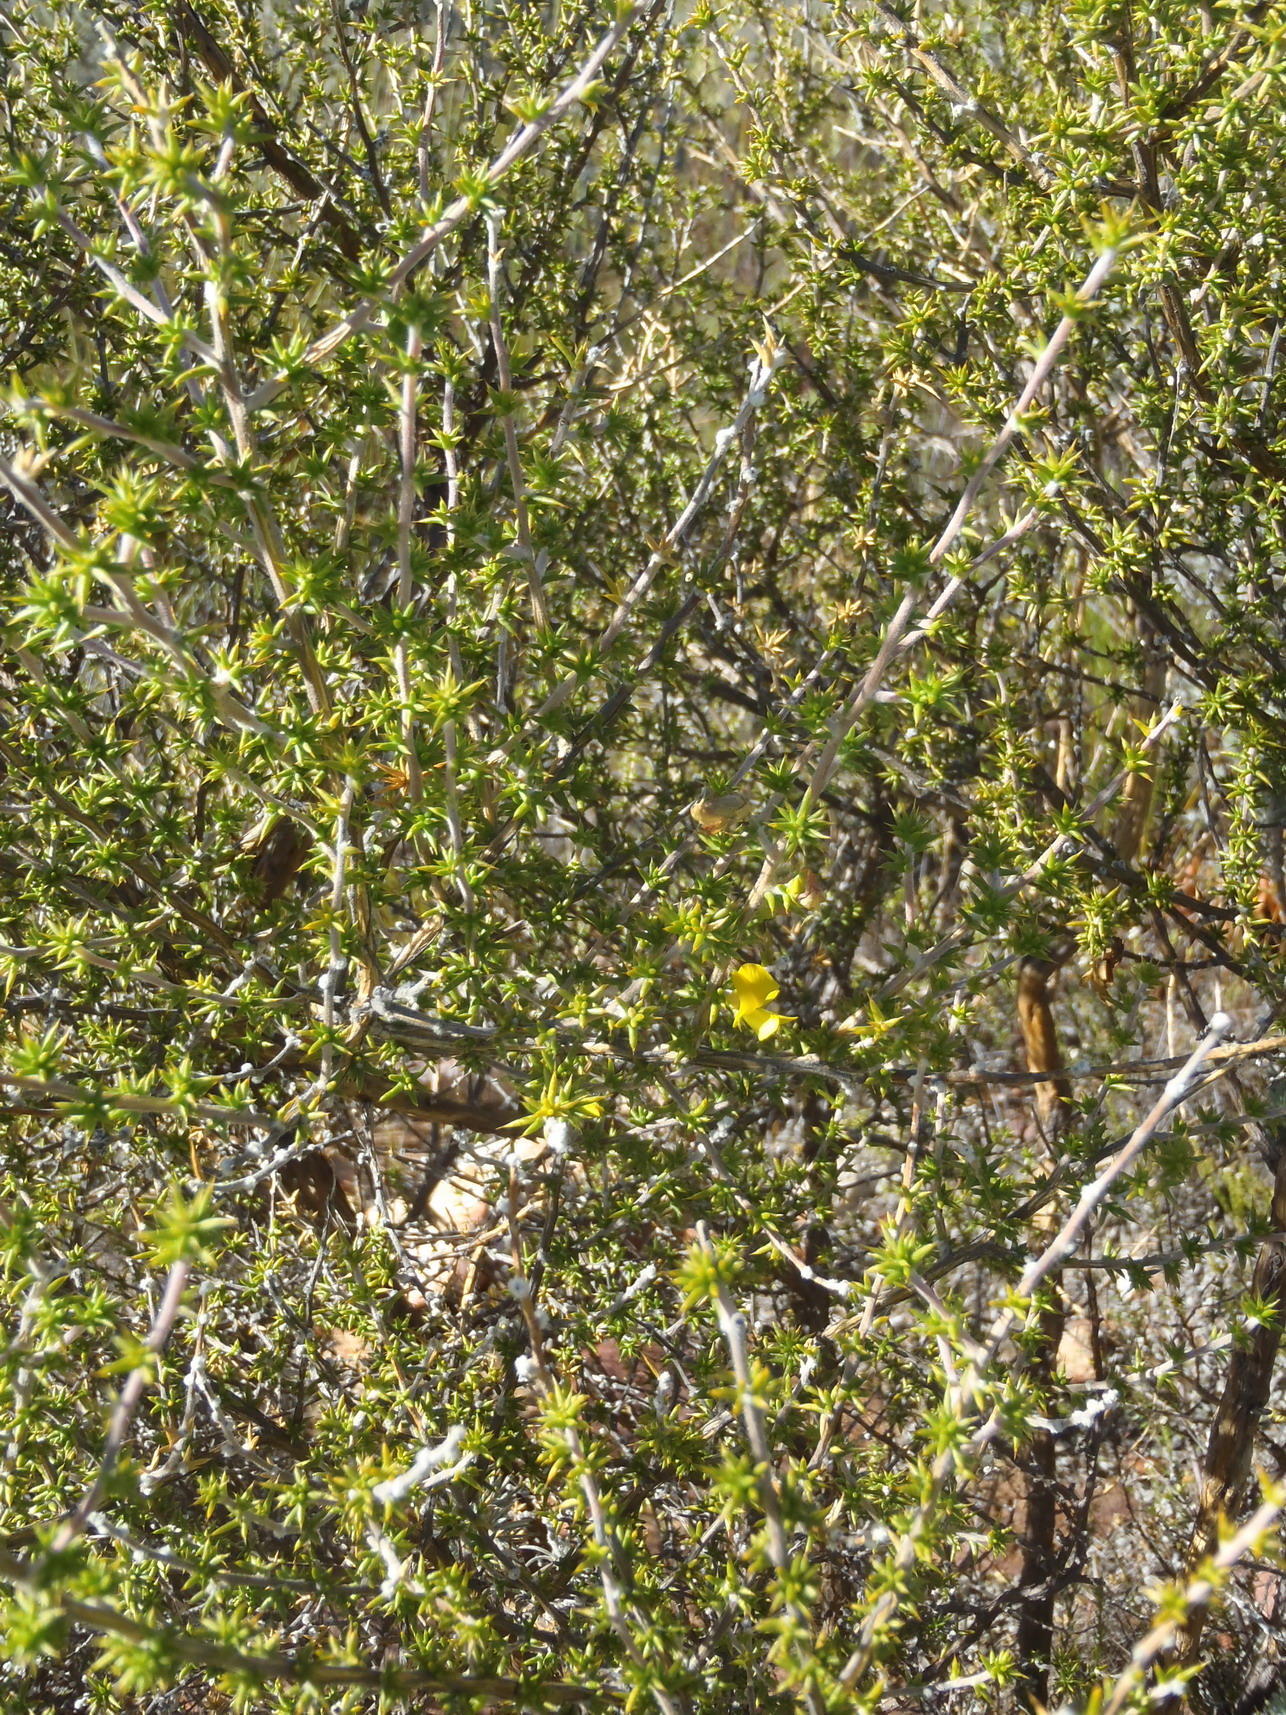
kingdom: Plantae
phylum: Tracheophyta
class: Magnoliopsida
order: Fabales
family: Fabaceae
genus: Aspalathus
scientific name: Aspalathus collina
